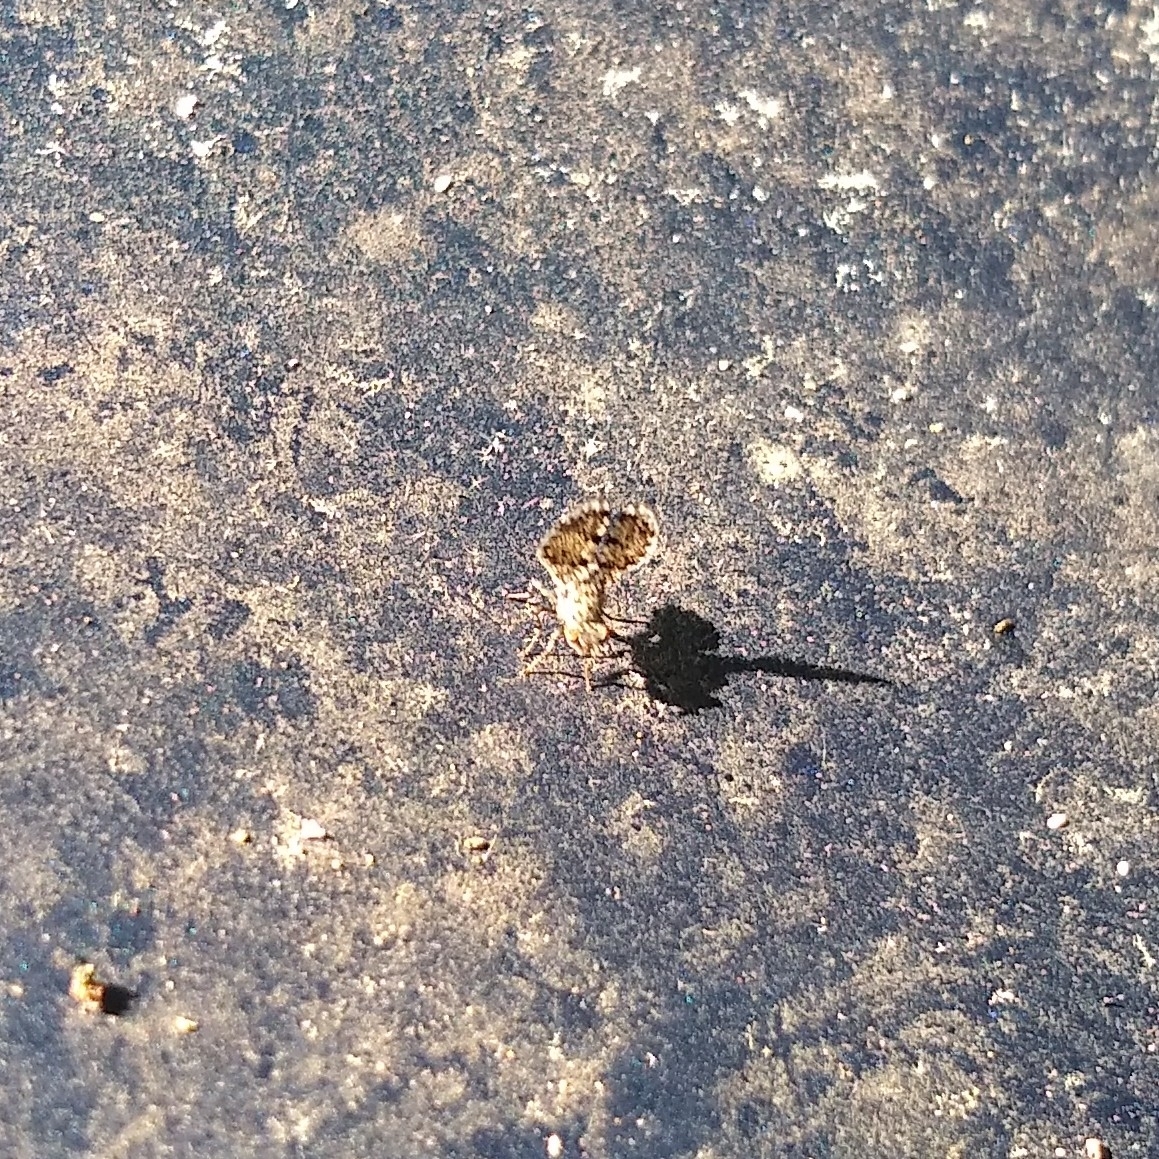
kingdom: Animalia
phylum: Arthropoda
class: Insecta
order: Diptera
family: Ulidiidae
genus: Callopistromyia
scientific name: Callopistromyia annulipes
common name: Peacock fly
